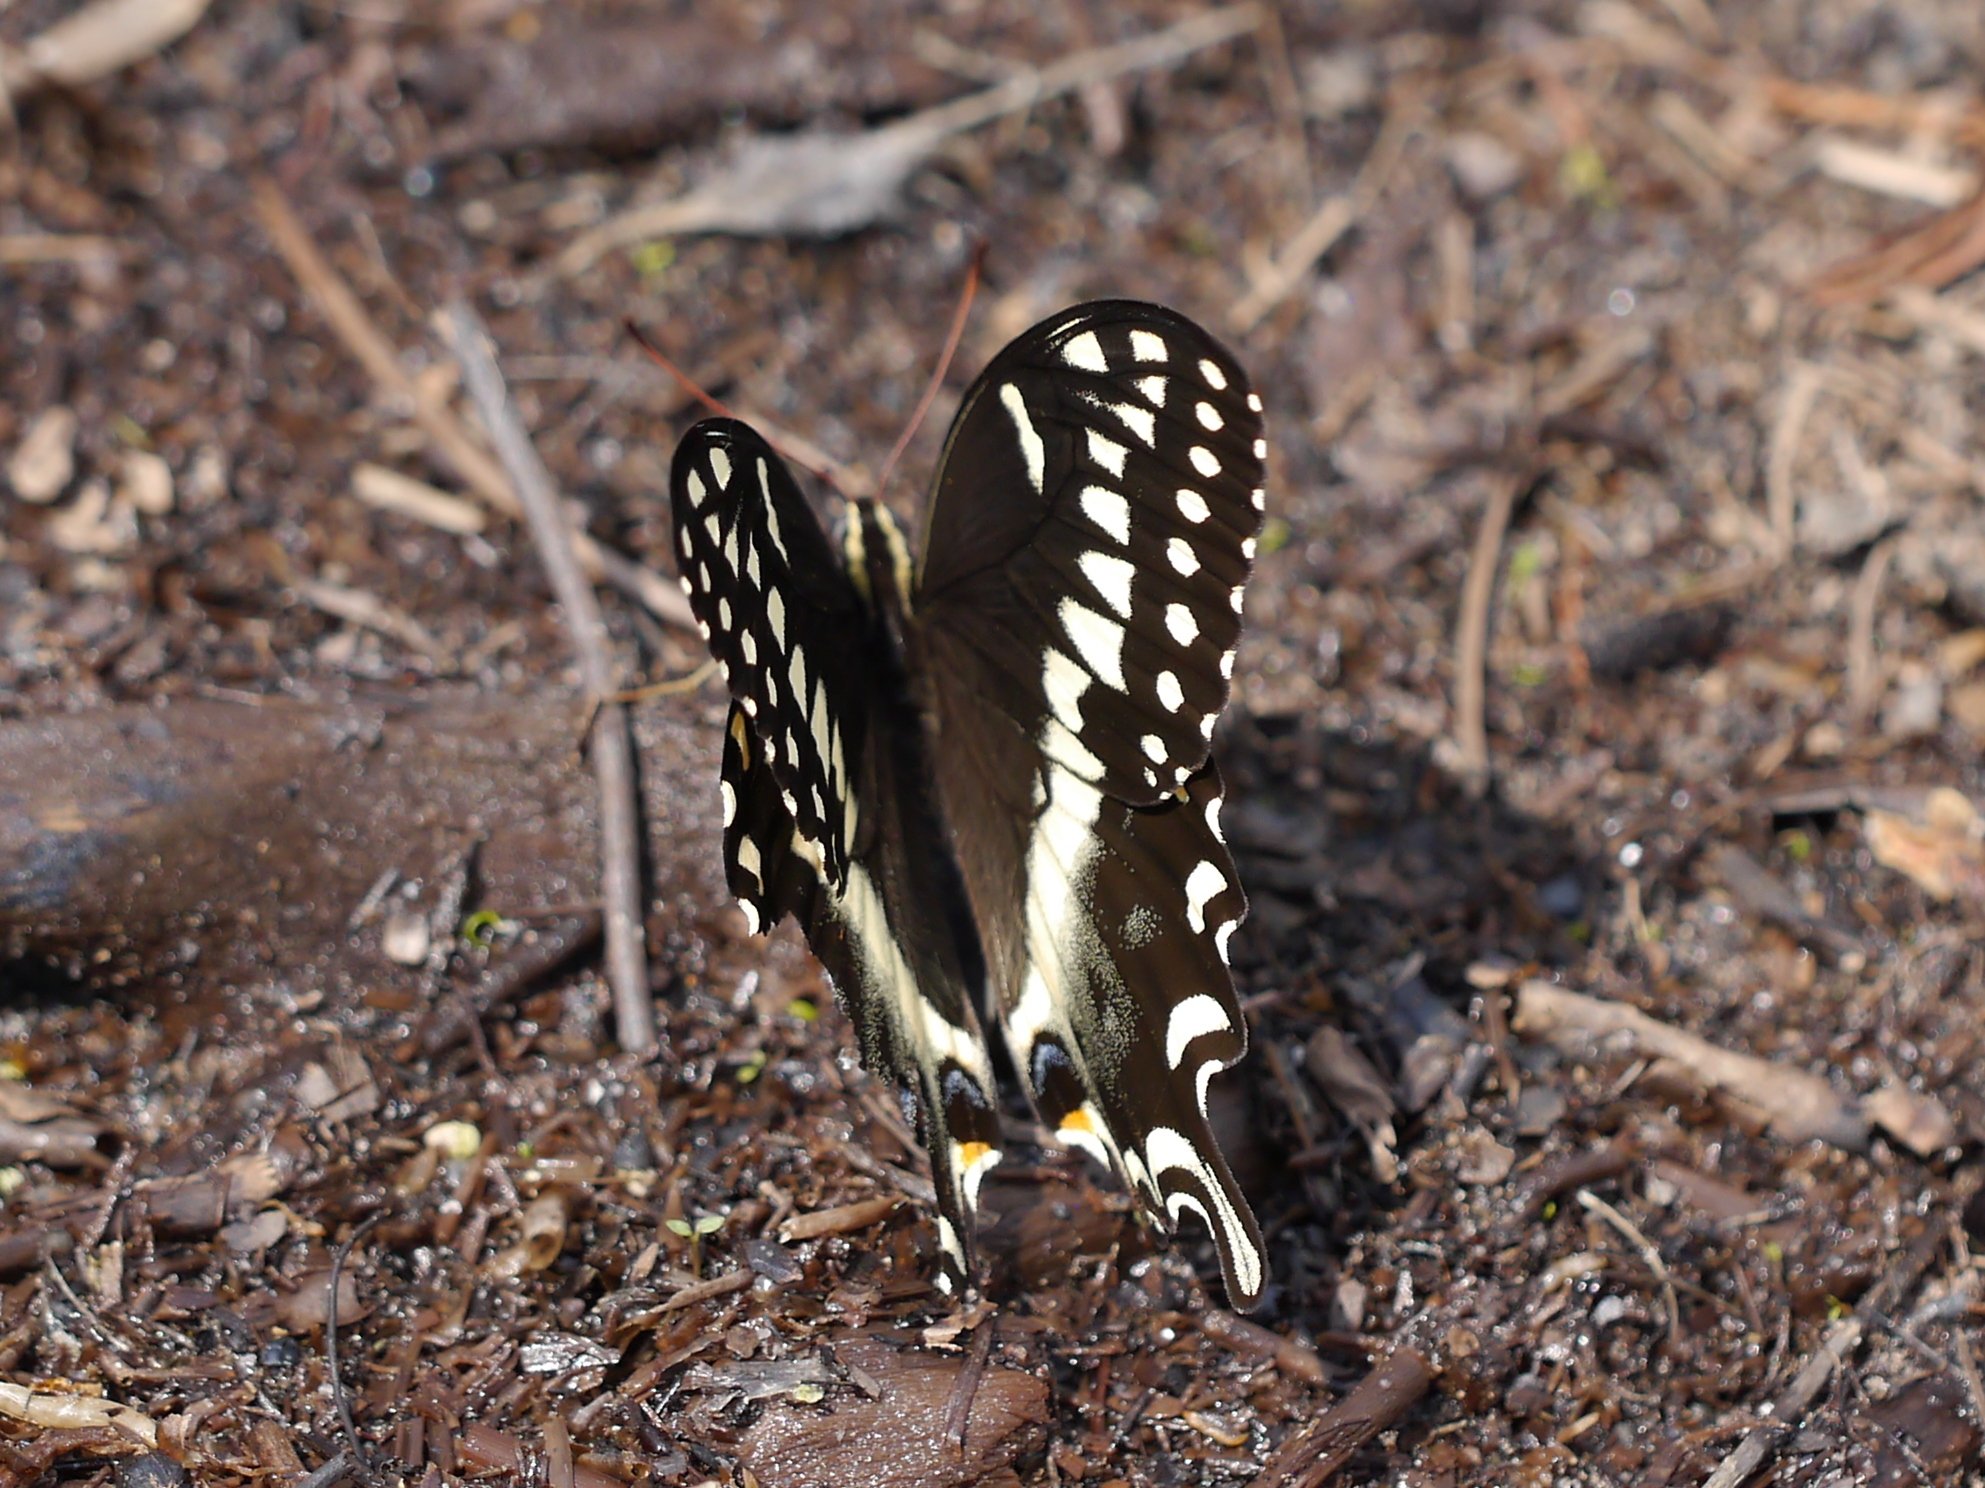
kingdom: Animalia
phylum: Arthropoda
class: Insecta
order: Lepidoptera
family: Papilionidae
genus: Papilio
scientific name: Papilio palamedes
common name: Palamedes swallowtail
